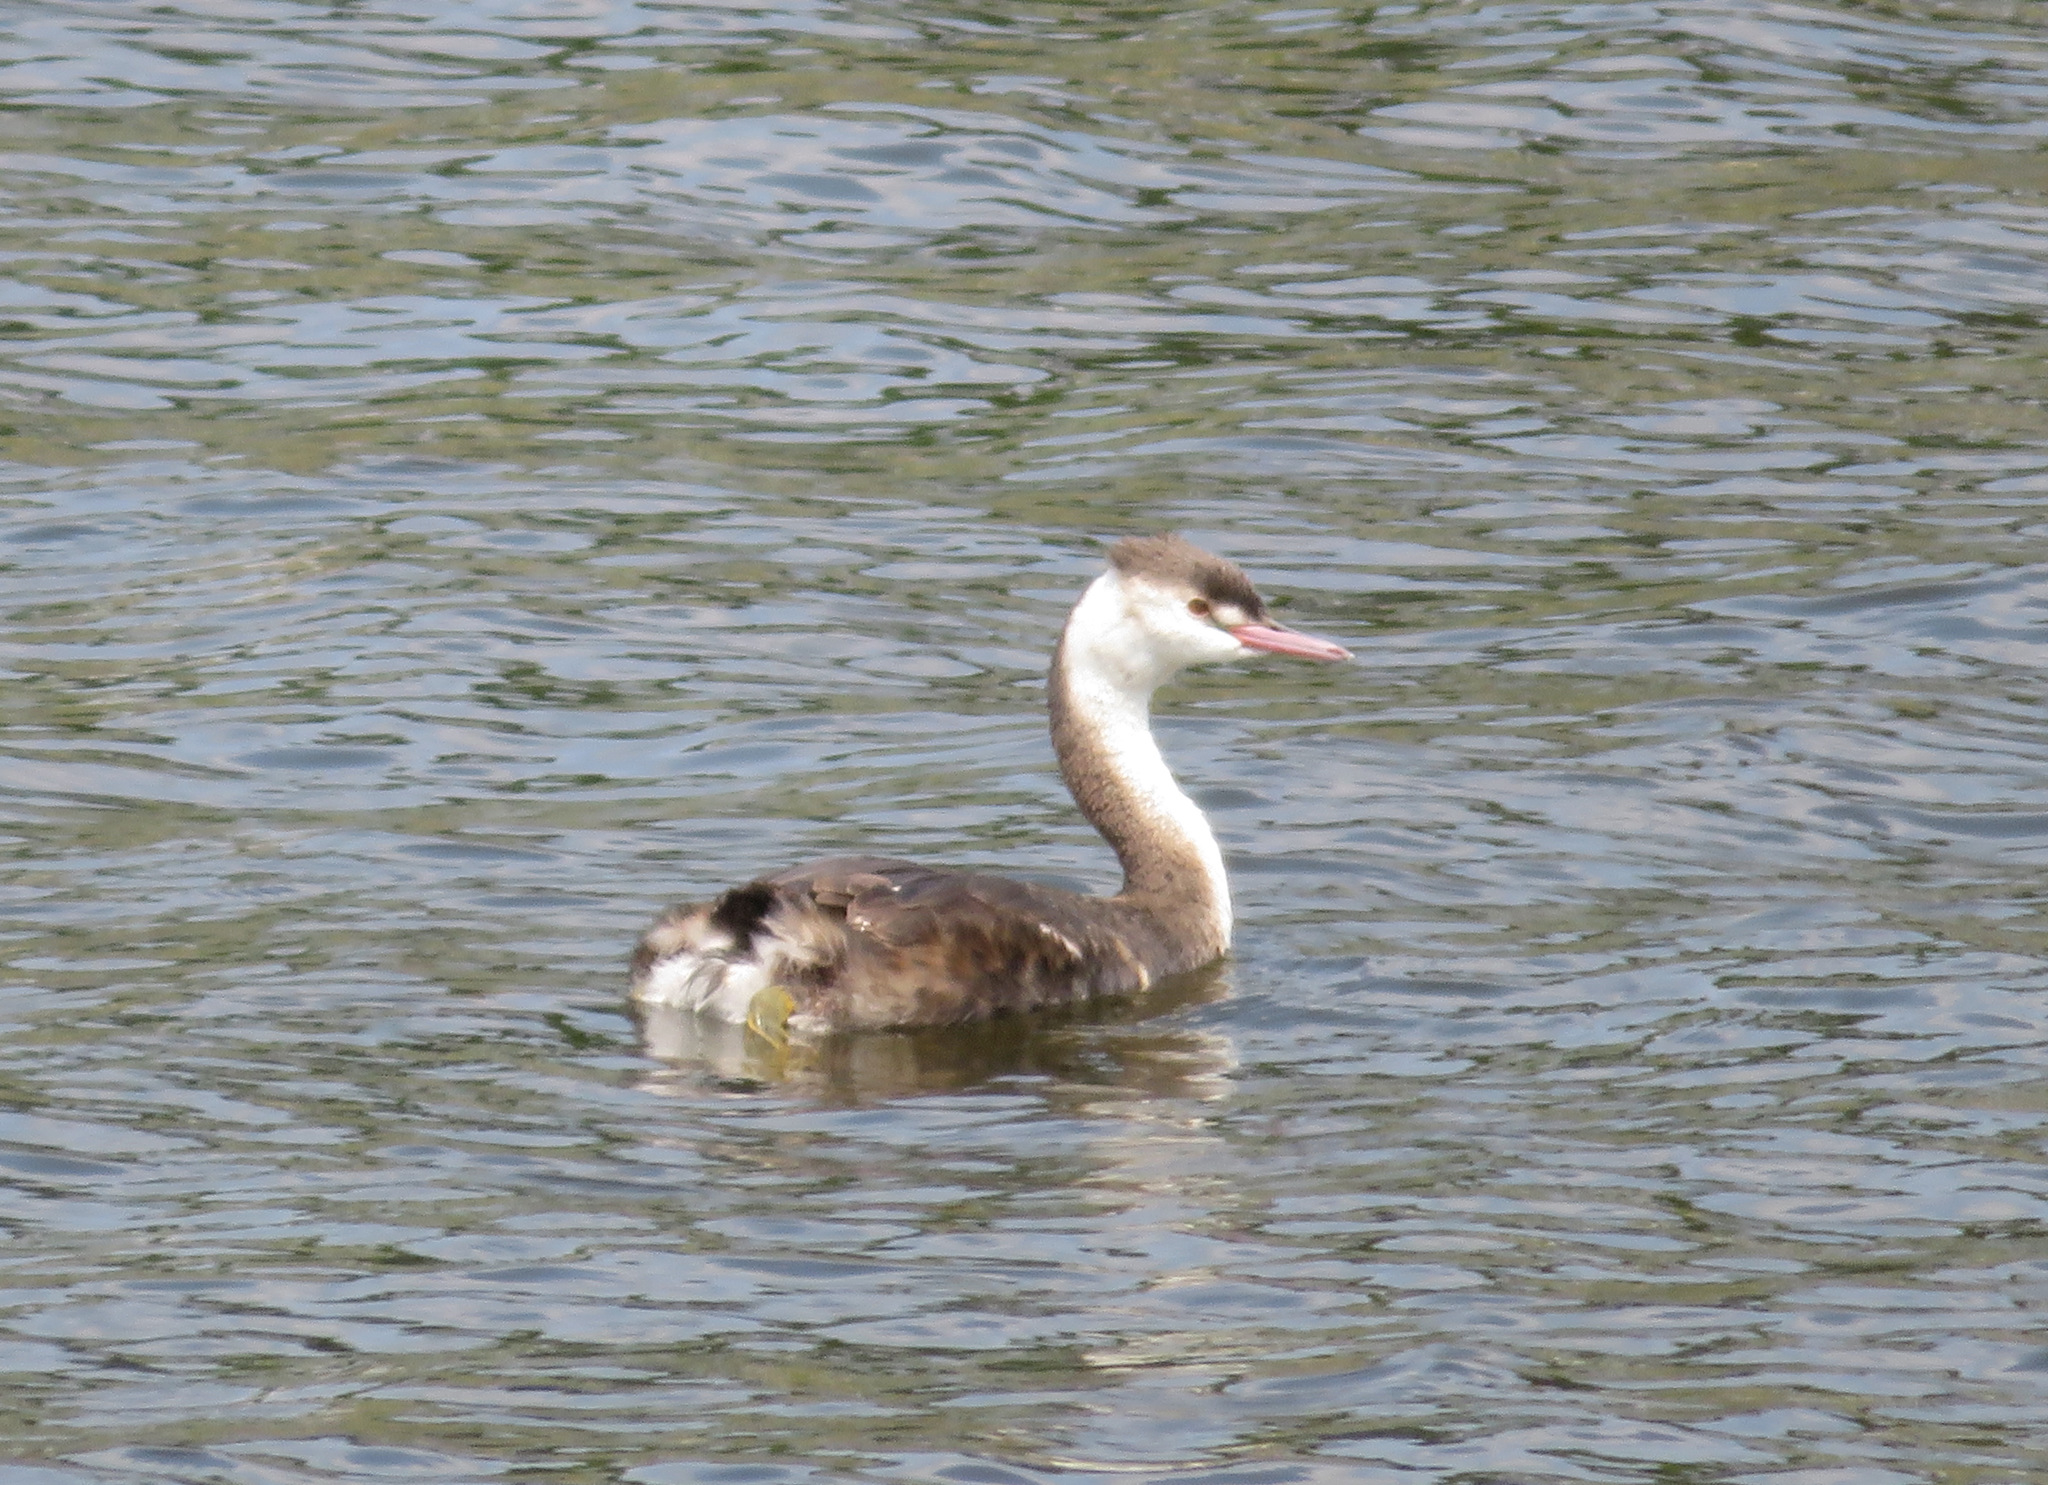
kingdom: Animalia
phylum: Chordata
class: Aves
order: Podicipediformes
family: Podicipedidae
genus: Podiceps
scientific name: Podiceps cristatus
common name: Great crested grebe
